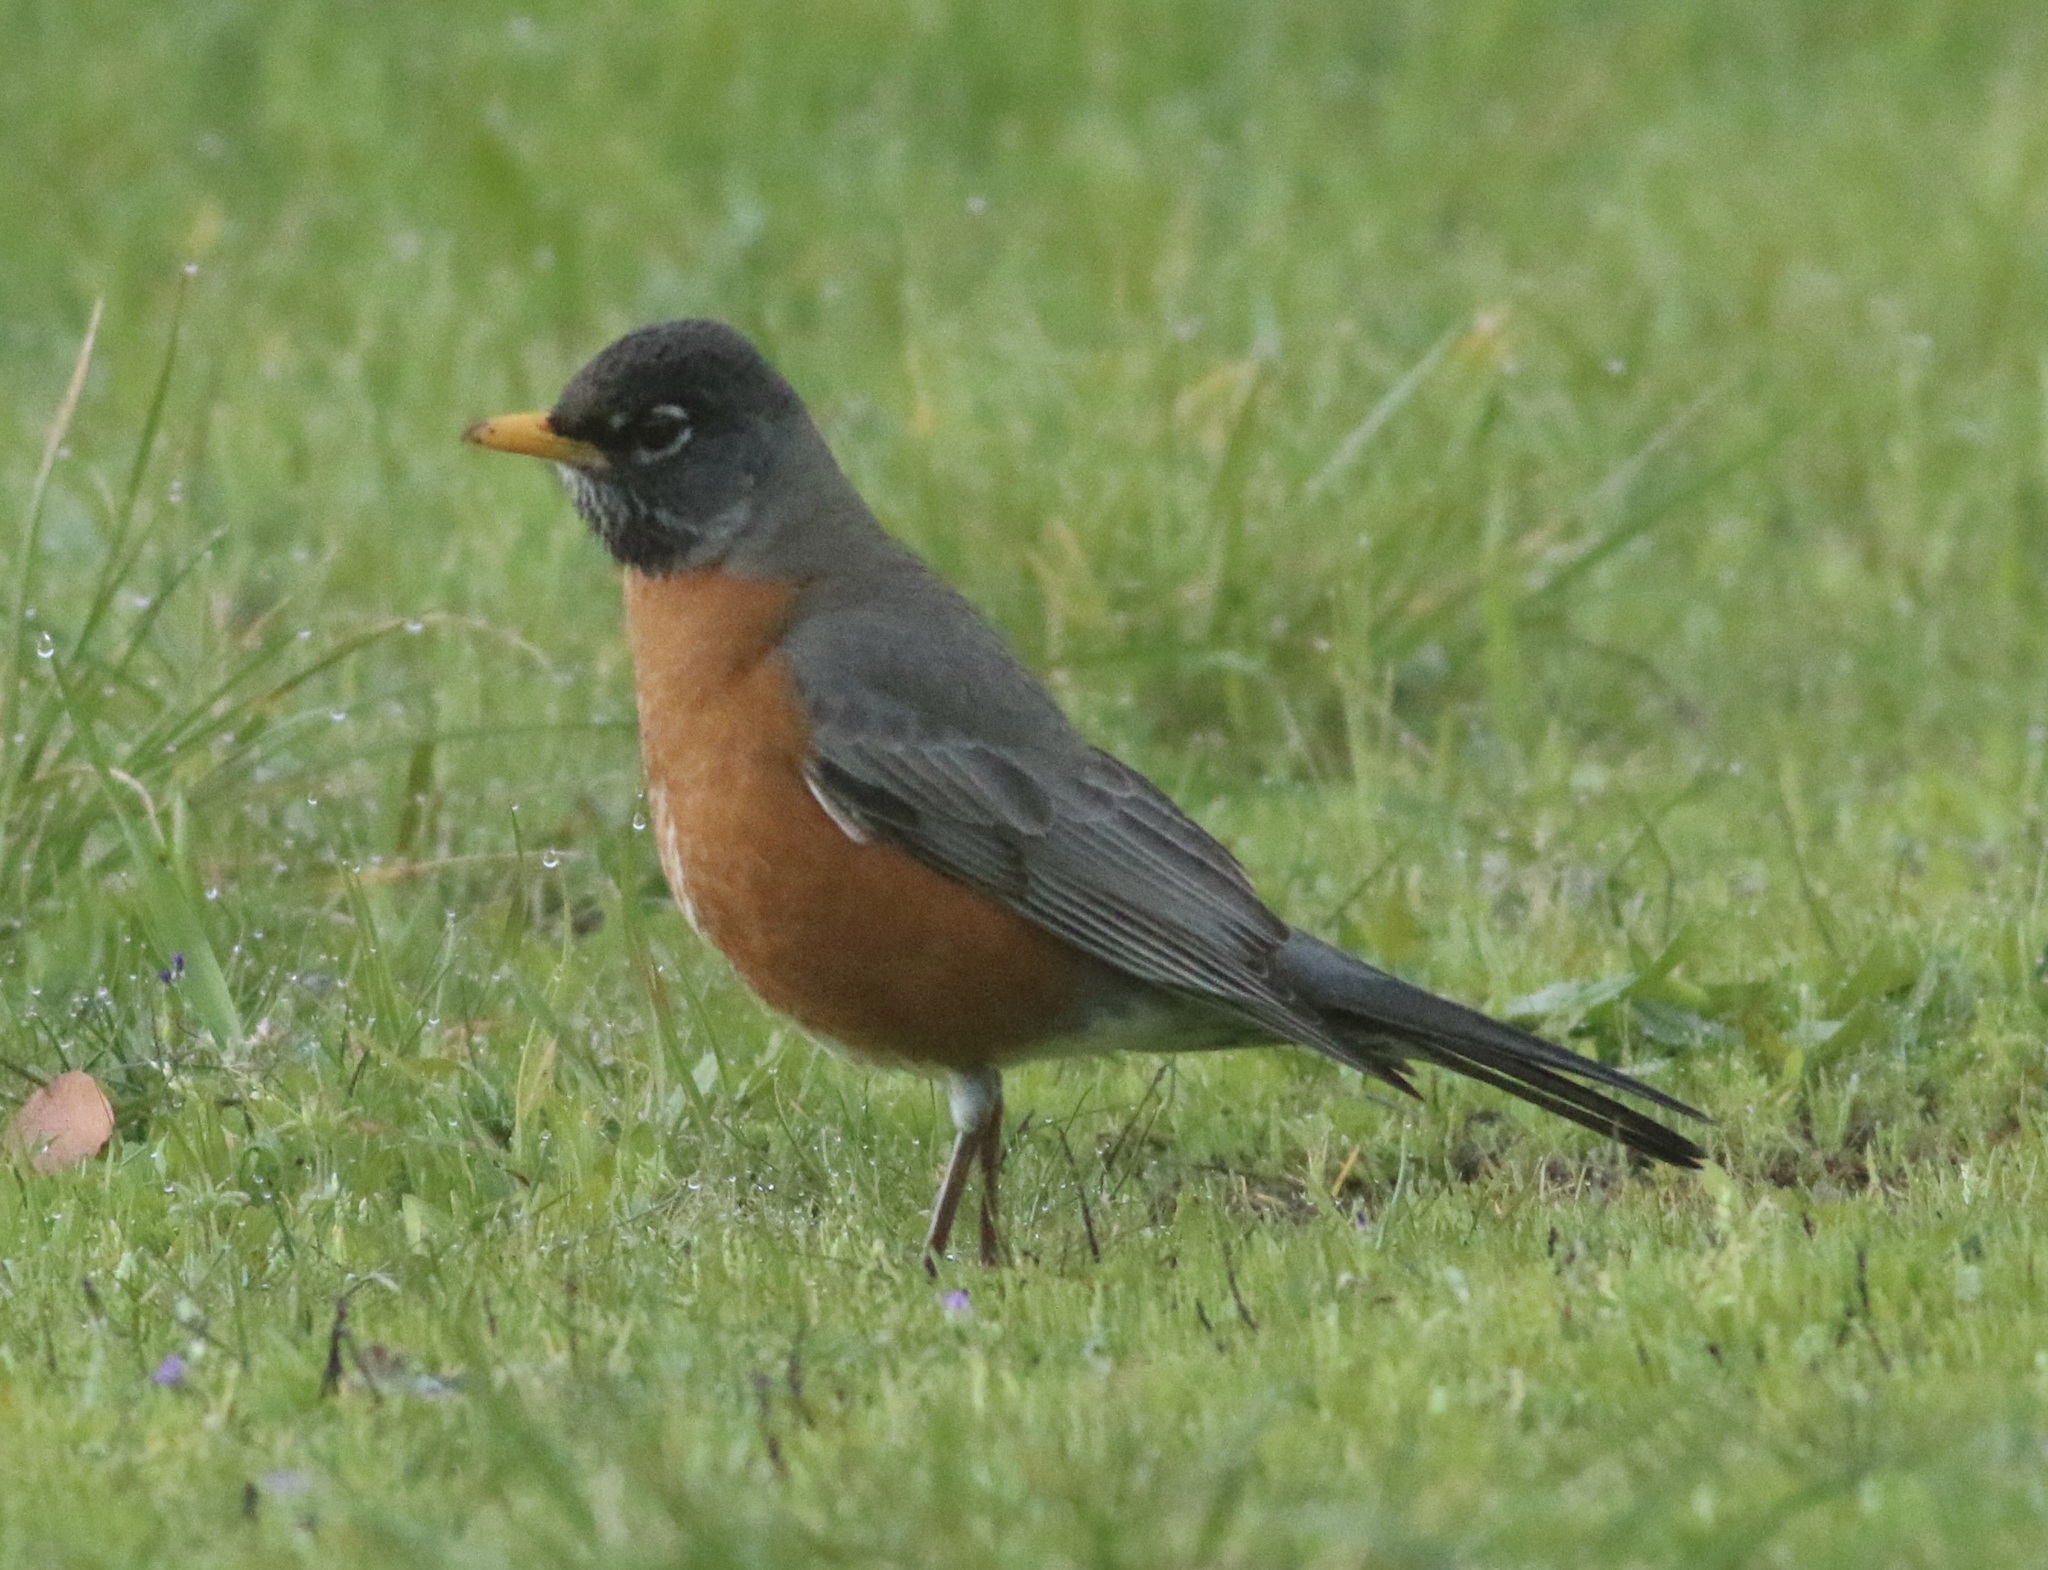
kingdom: Animalia
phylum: Chordata
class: Aves
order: Passeriformes
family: Turdidae
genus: Turdus
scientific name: Turdus migratorius
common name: American robin
